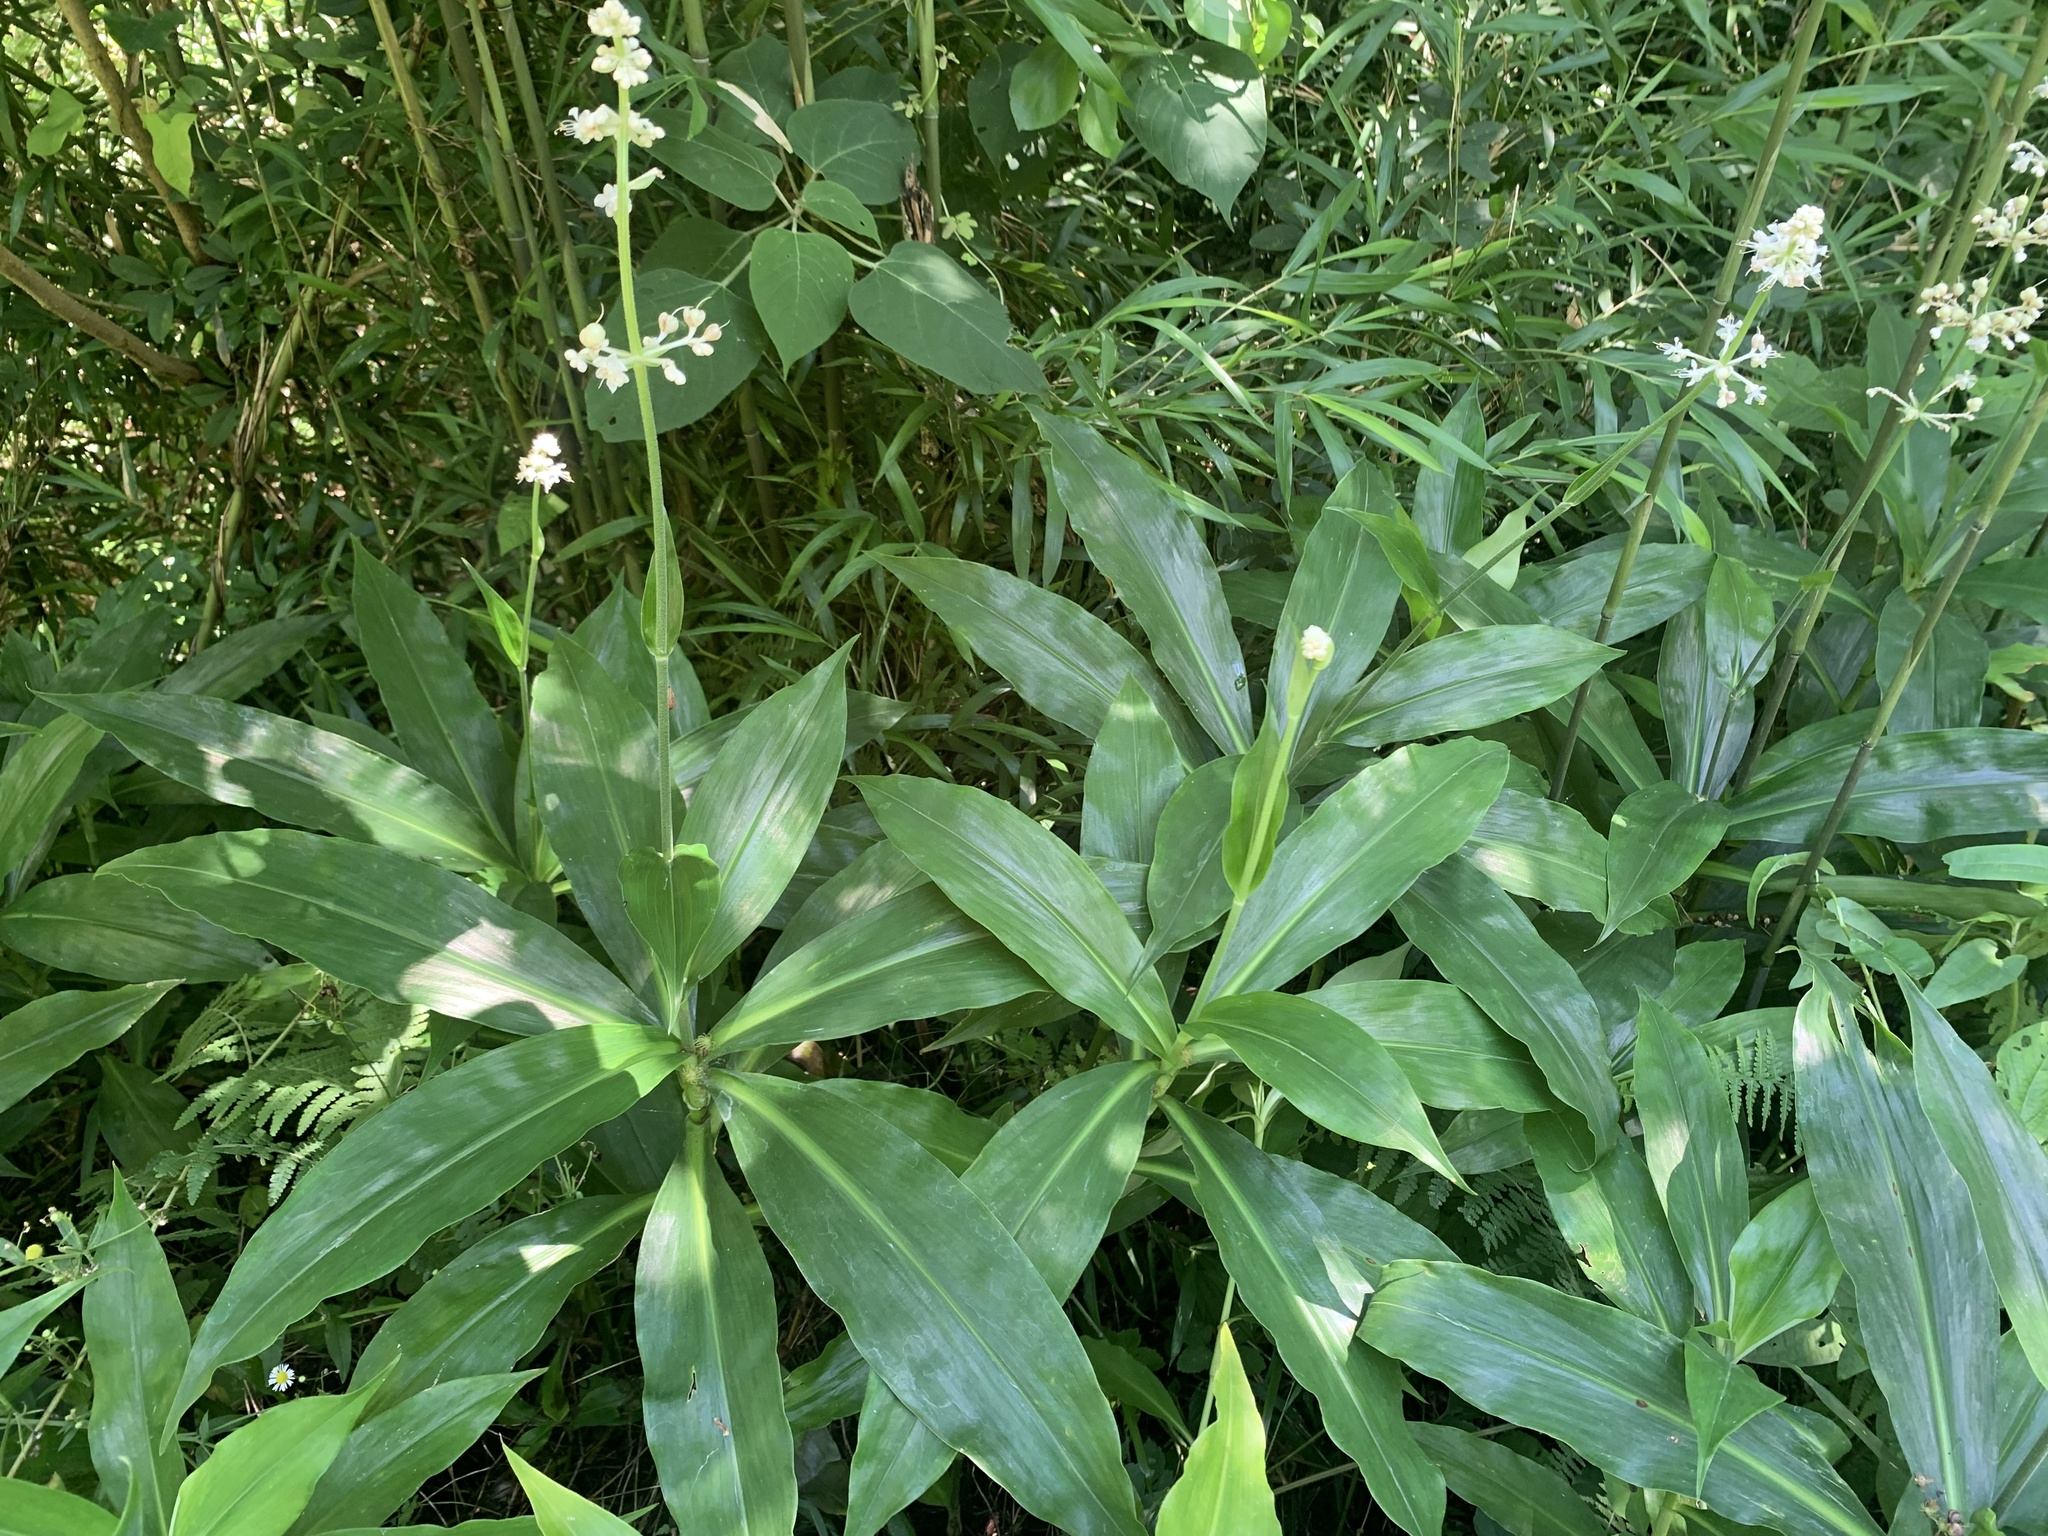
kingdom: Plantae
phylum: Tracheophyta
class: Liliopsida
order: Commelinales
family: Commelinaceae
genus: Pollia
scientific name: Pollia japonica
